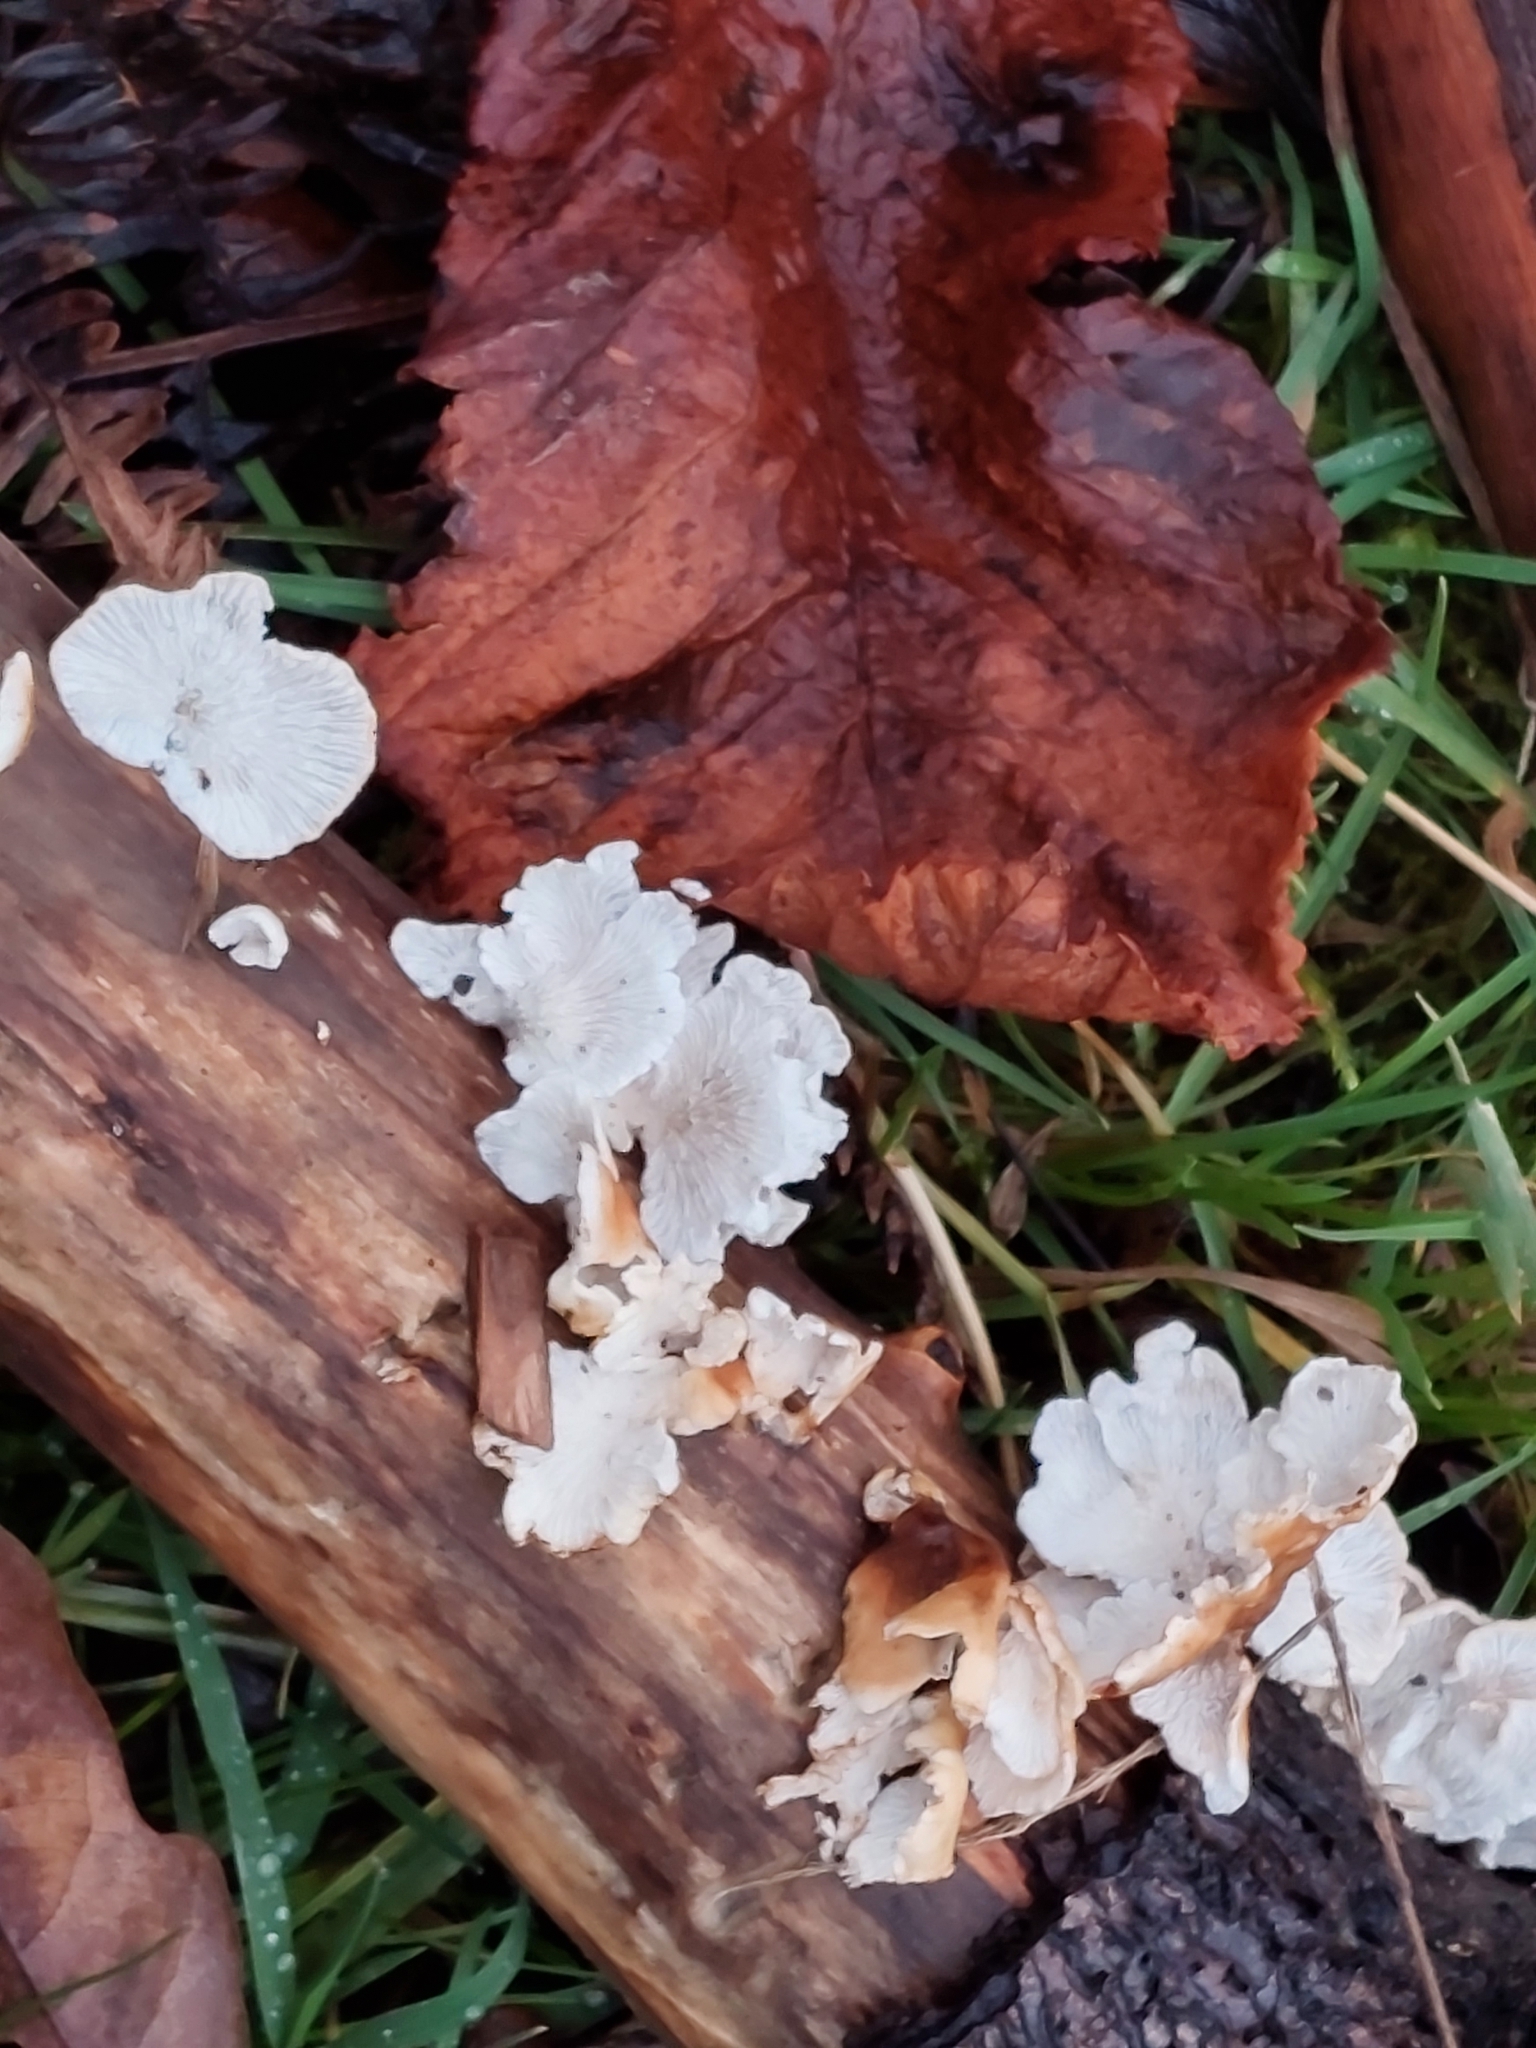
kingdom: Fungi
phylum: Basidiomycota
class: Agaricomycetes
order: Amylocorticiales
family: Amylocorticiaceae
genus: Plicaturopsis
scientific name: Plicaturopsis crispa
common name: Crimped gill
